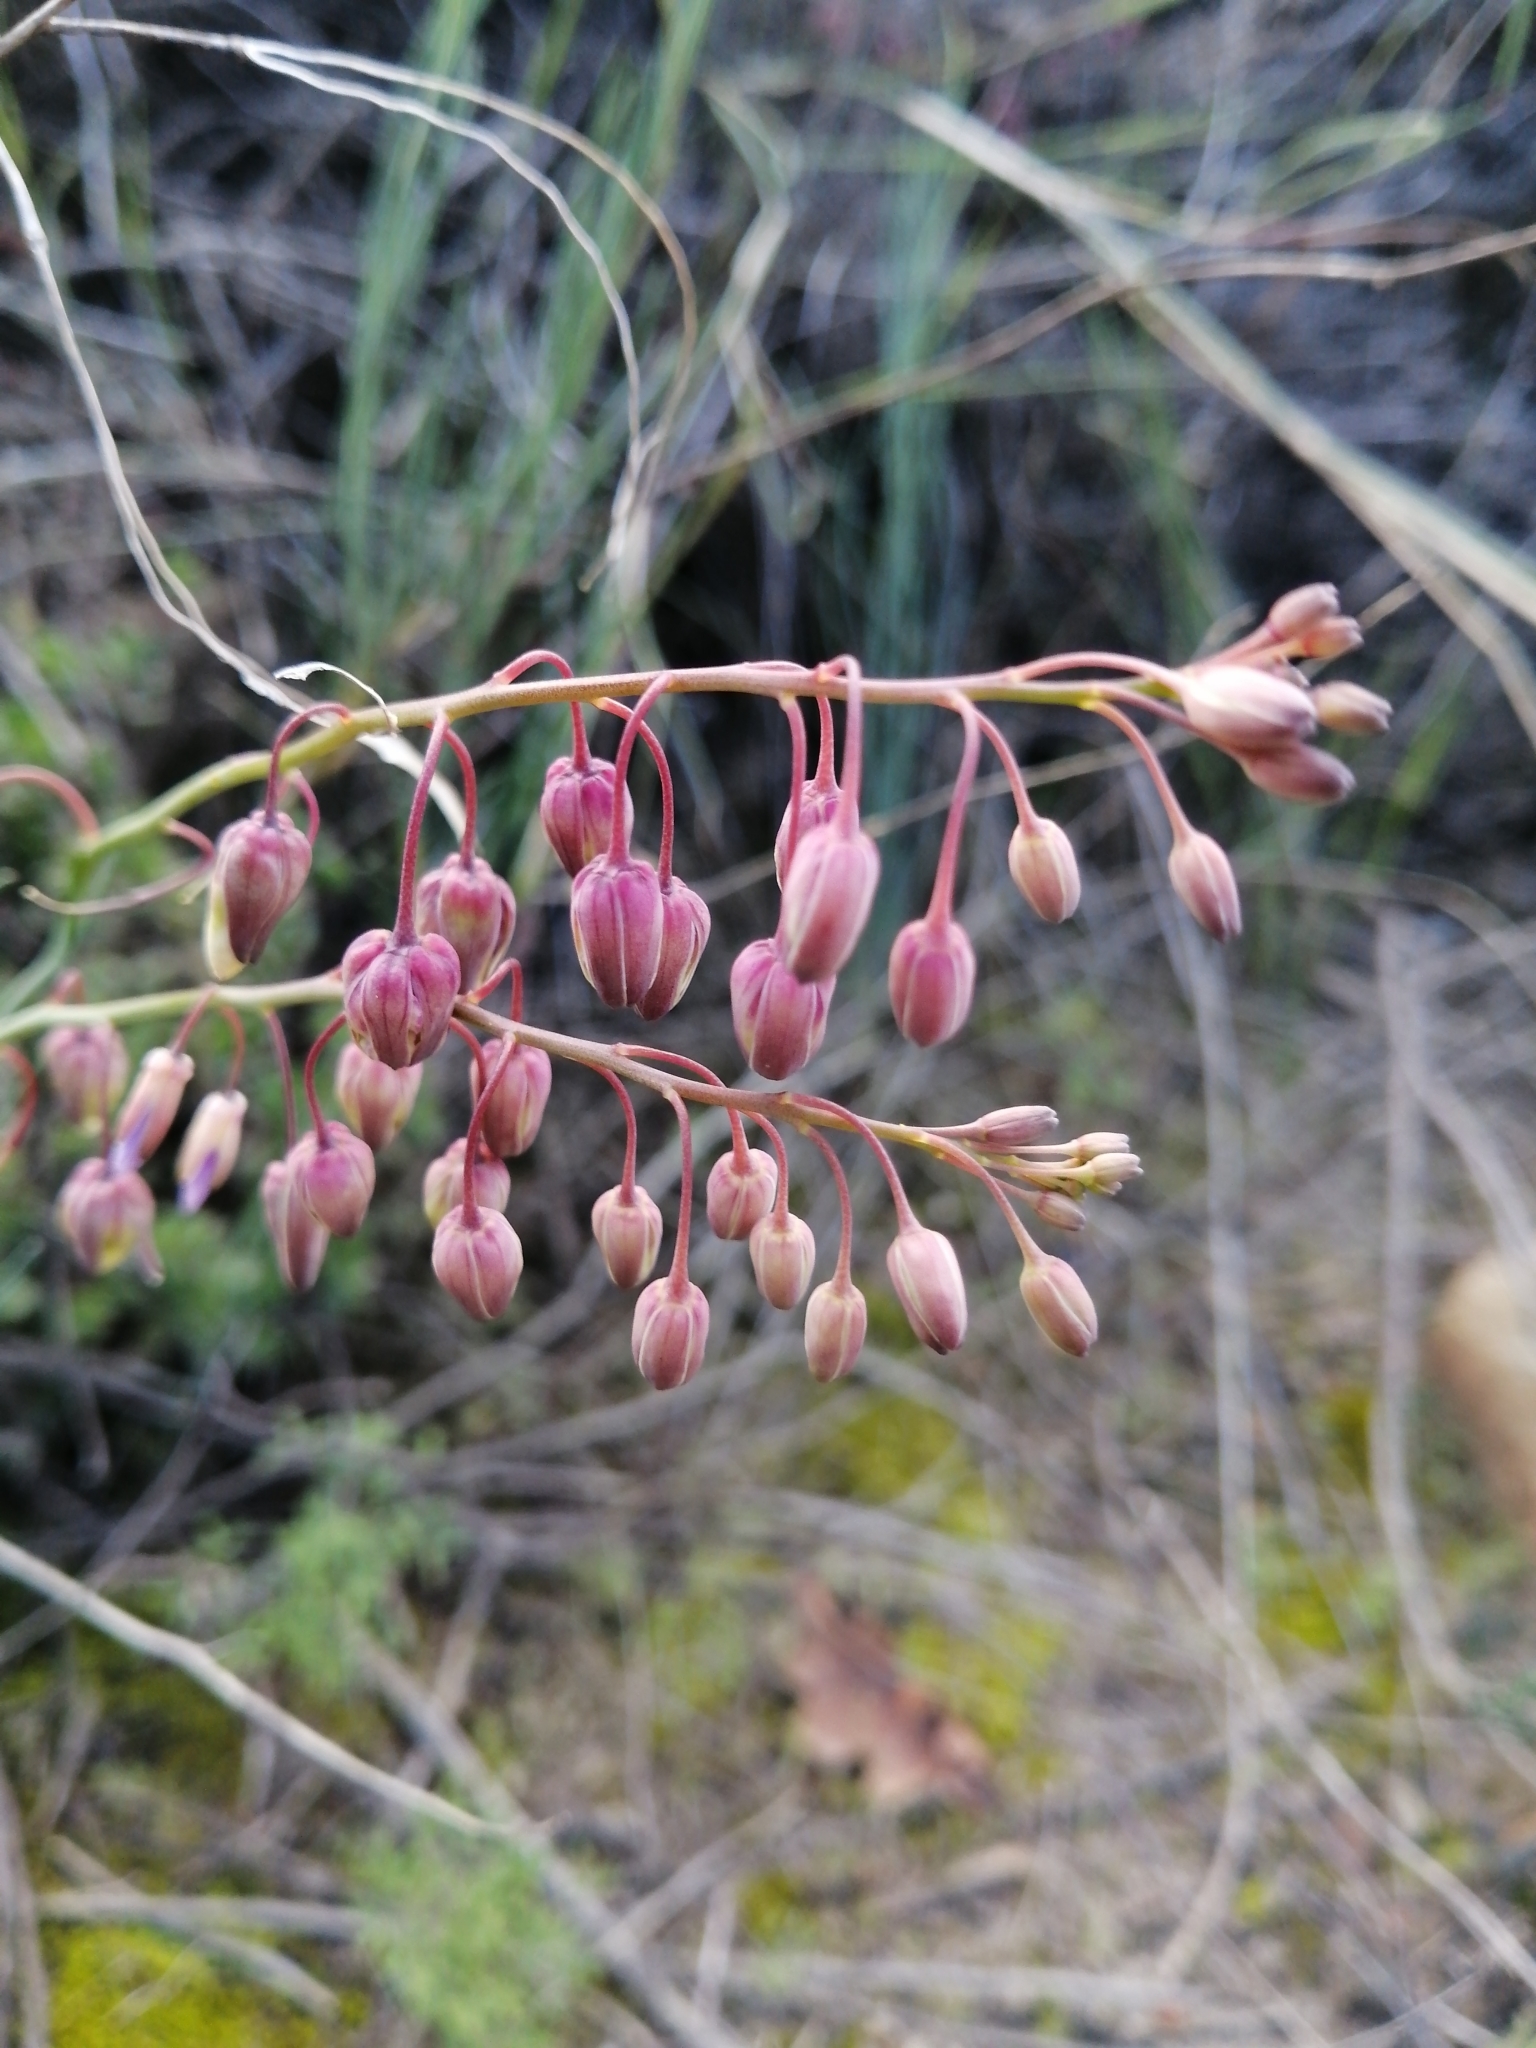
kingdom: Plantae
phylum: Tracheophyta
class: Magnoliopsida
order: Brassicales
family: Brassicaceae
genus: Heliophila
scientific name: Heliophila cornuta
